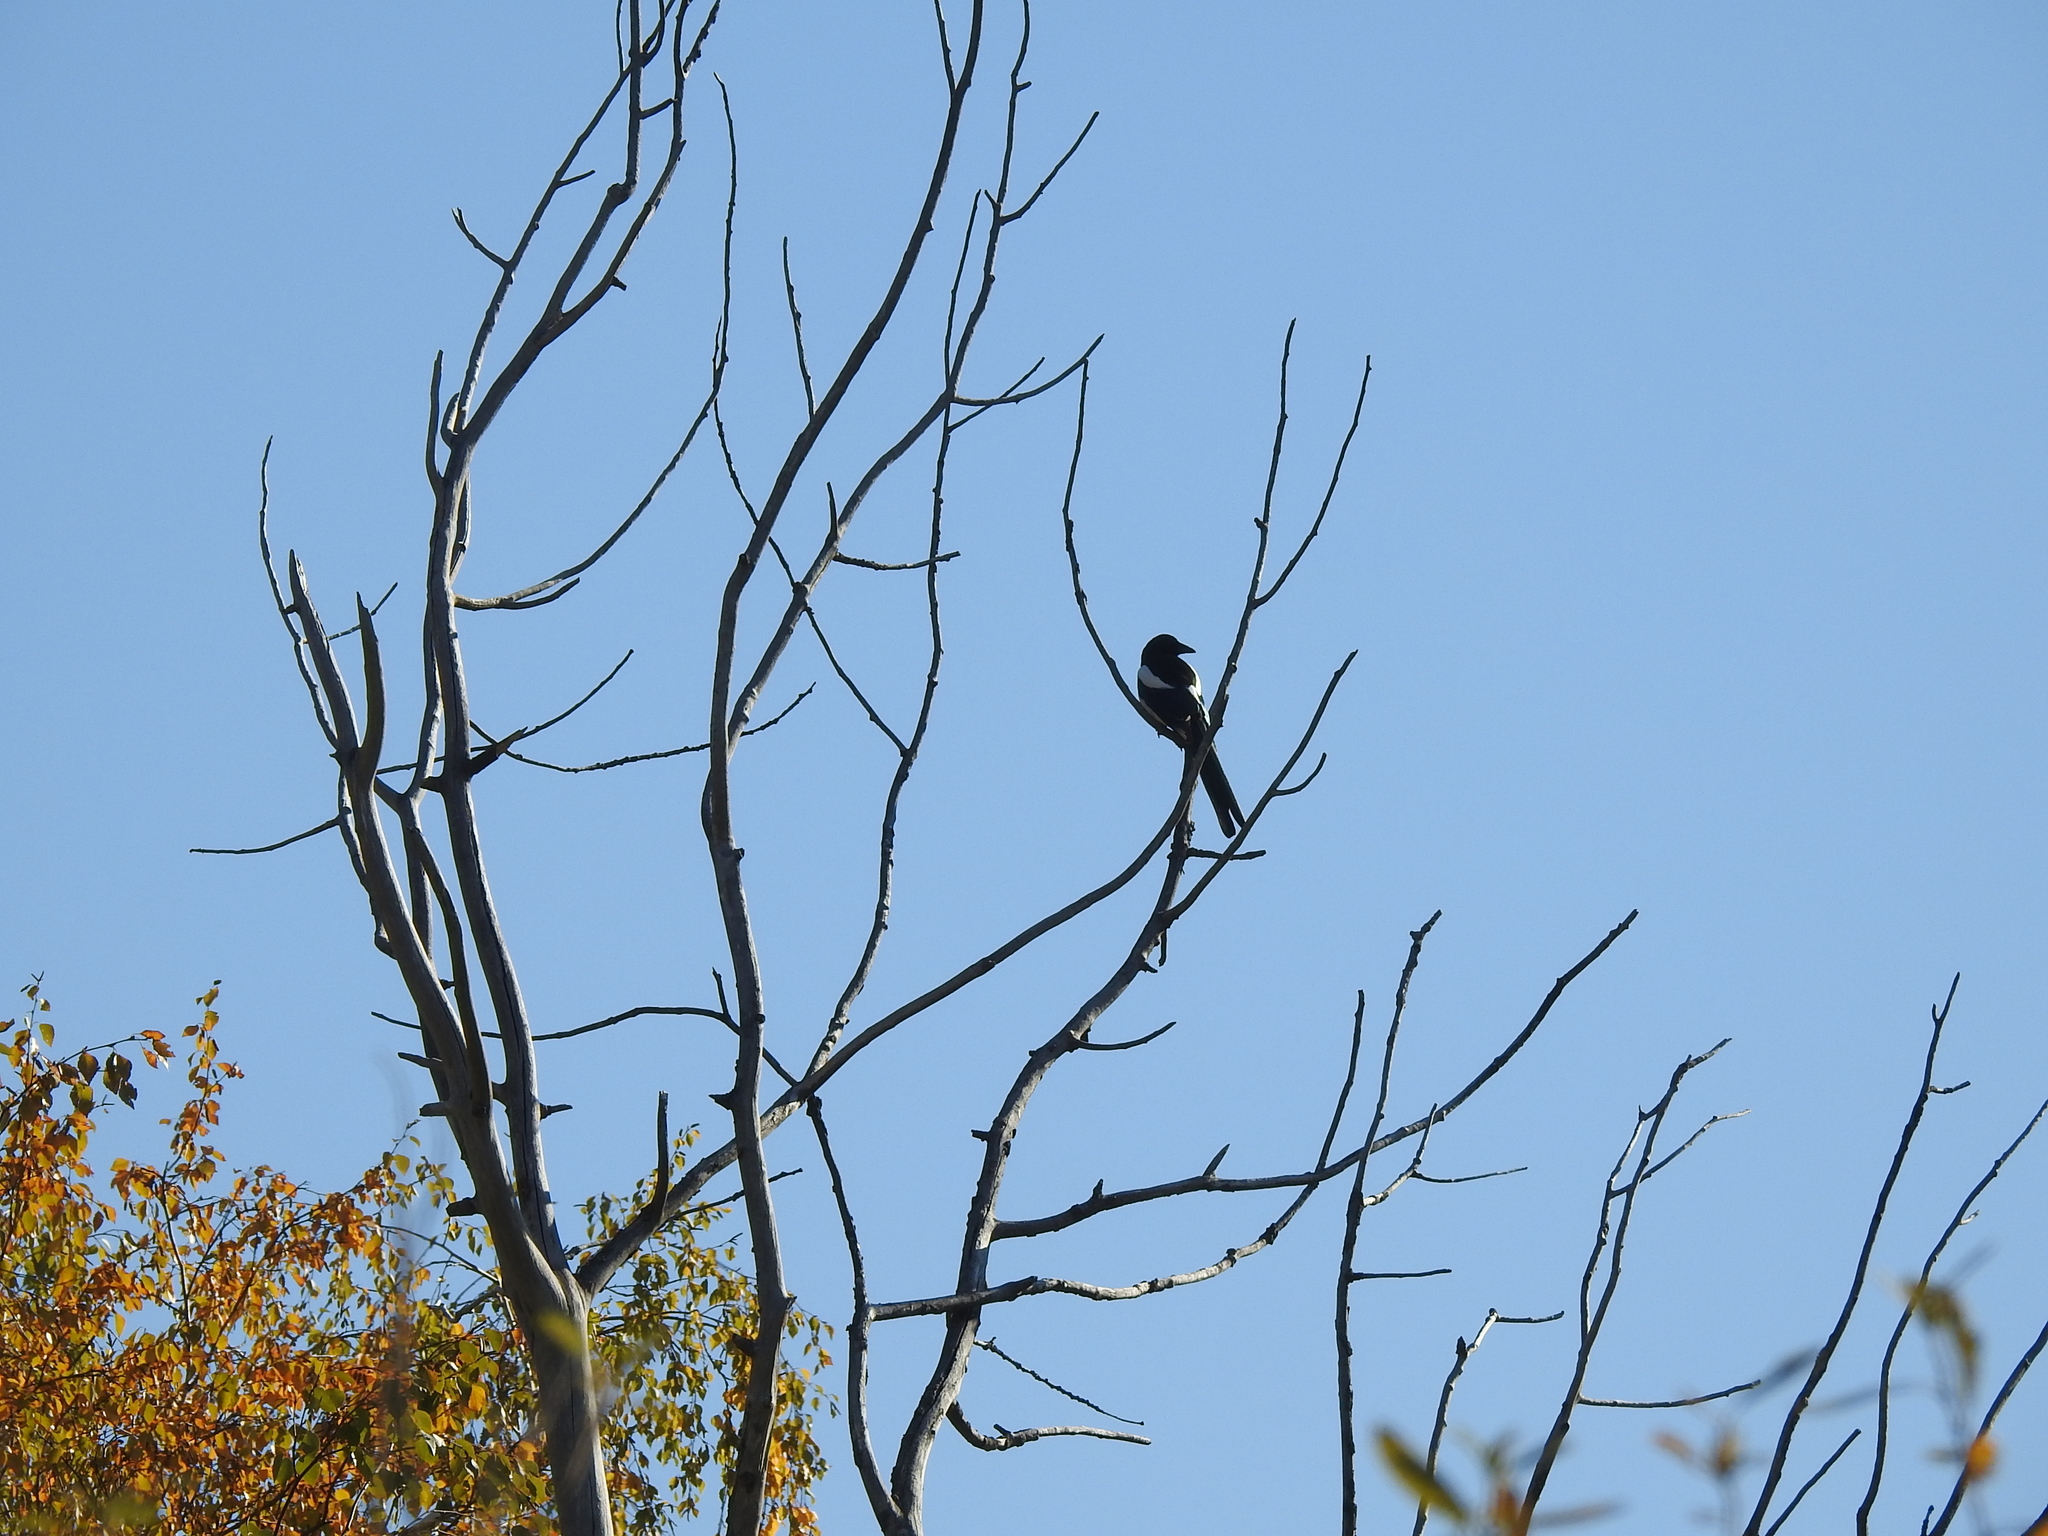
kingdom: Animalia
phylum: Chordata
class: Aves
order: Passeriformes
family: Corvidae
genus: Pica
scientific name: Pica pica
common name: Eurasian magpie
